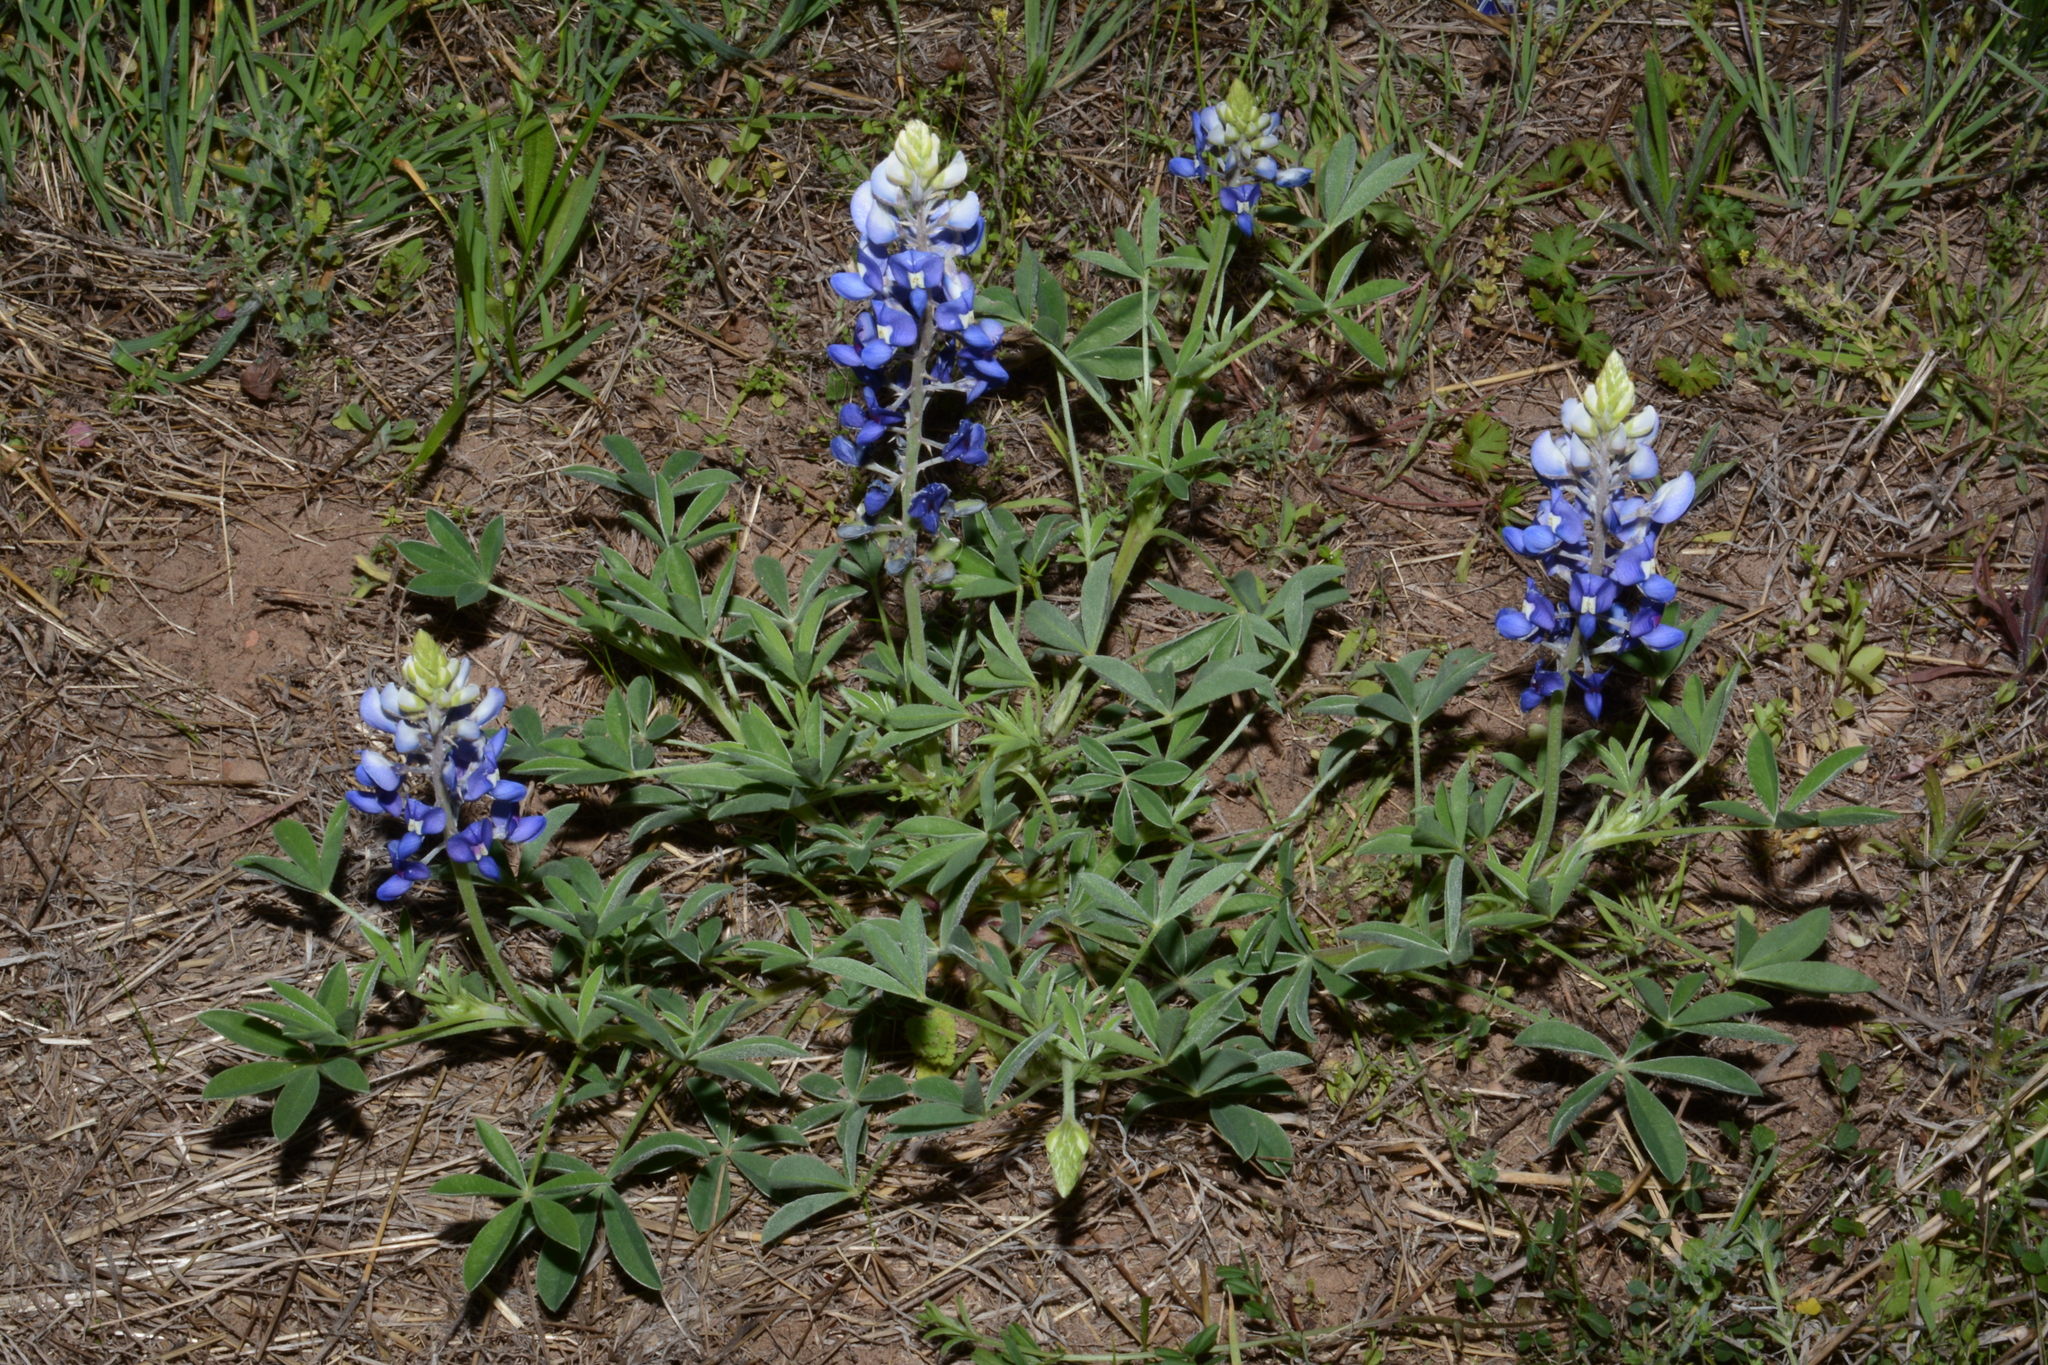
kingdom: Plantae
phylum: Tracheophyta
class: Magnoliopsida
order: Fabales
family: Fabaceae
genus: Lupinus
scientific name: Lupinus texensis
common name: Texas bluebonnet
